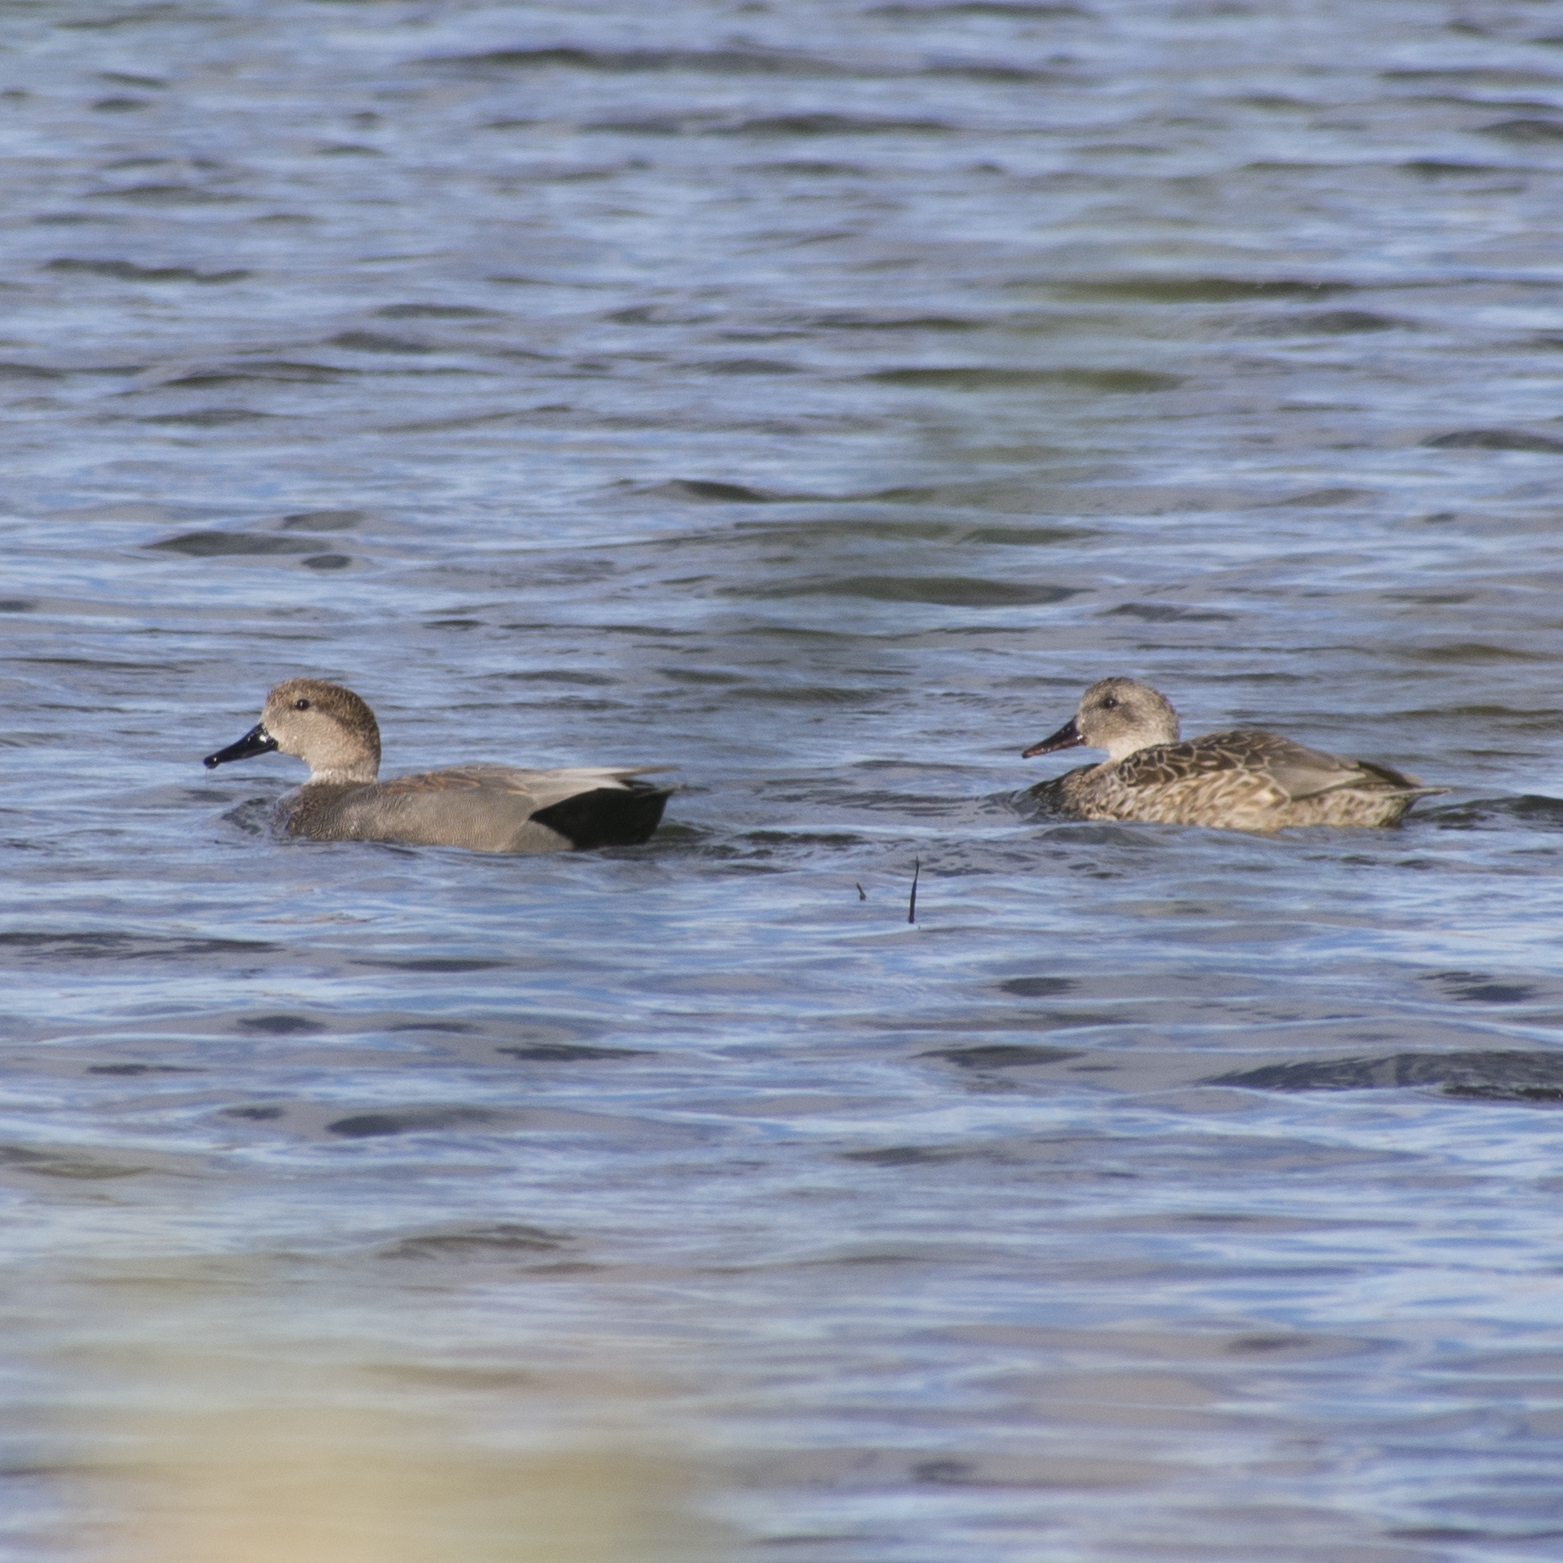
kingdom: Animalia
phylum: Chordata
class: Aves
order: Anseriformes
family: Anatidae
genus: Mareca
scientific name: Mareca strepera
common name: Gadwall
